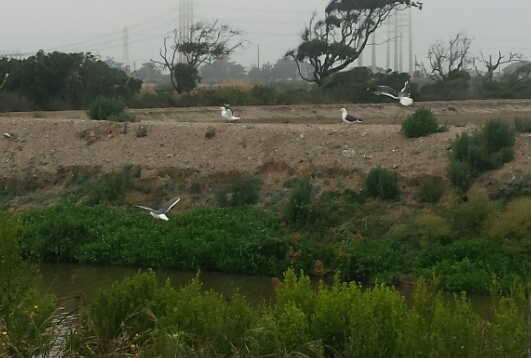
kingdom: Animalia
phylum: Chordata
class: Aves
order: Charadriiformes
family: Laridae
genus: Larus
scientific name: Larus occidentalis
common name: Western gull
